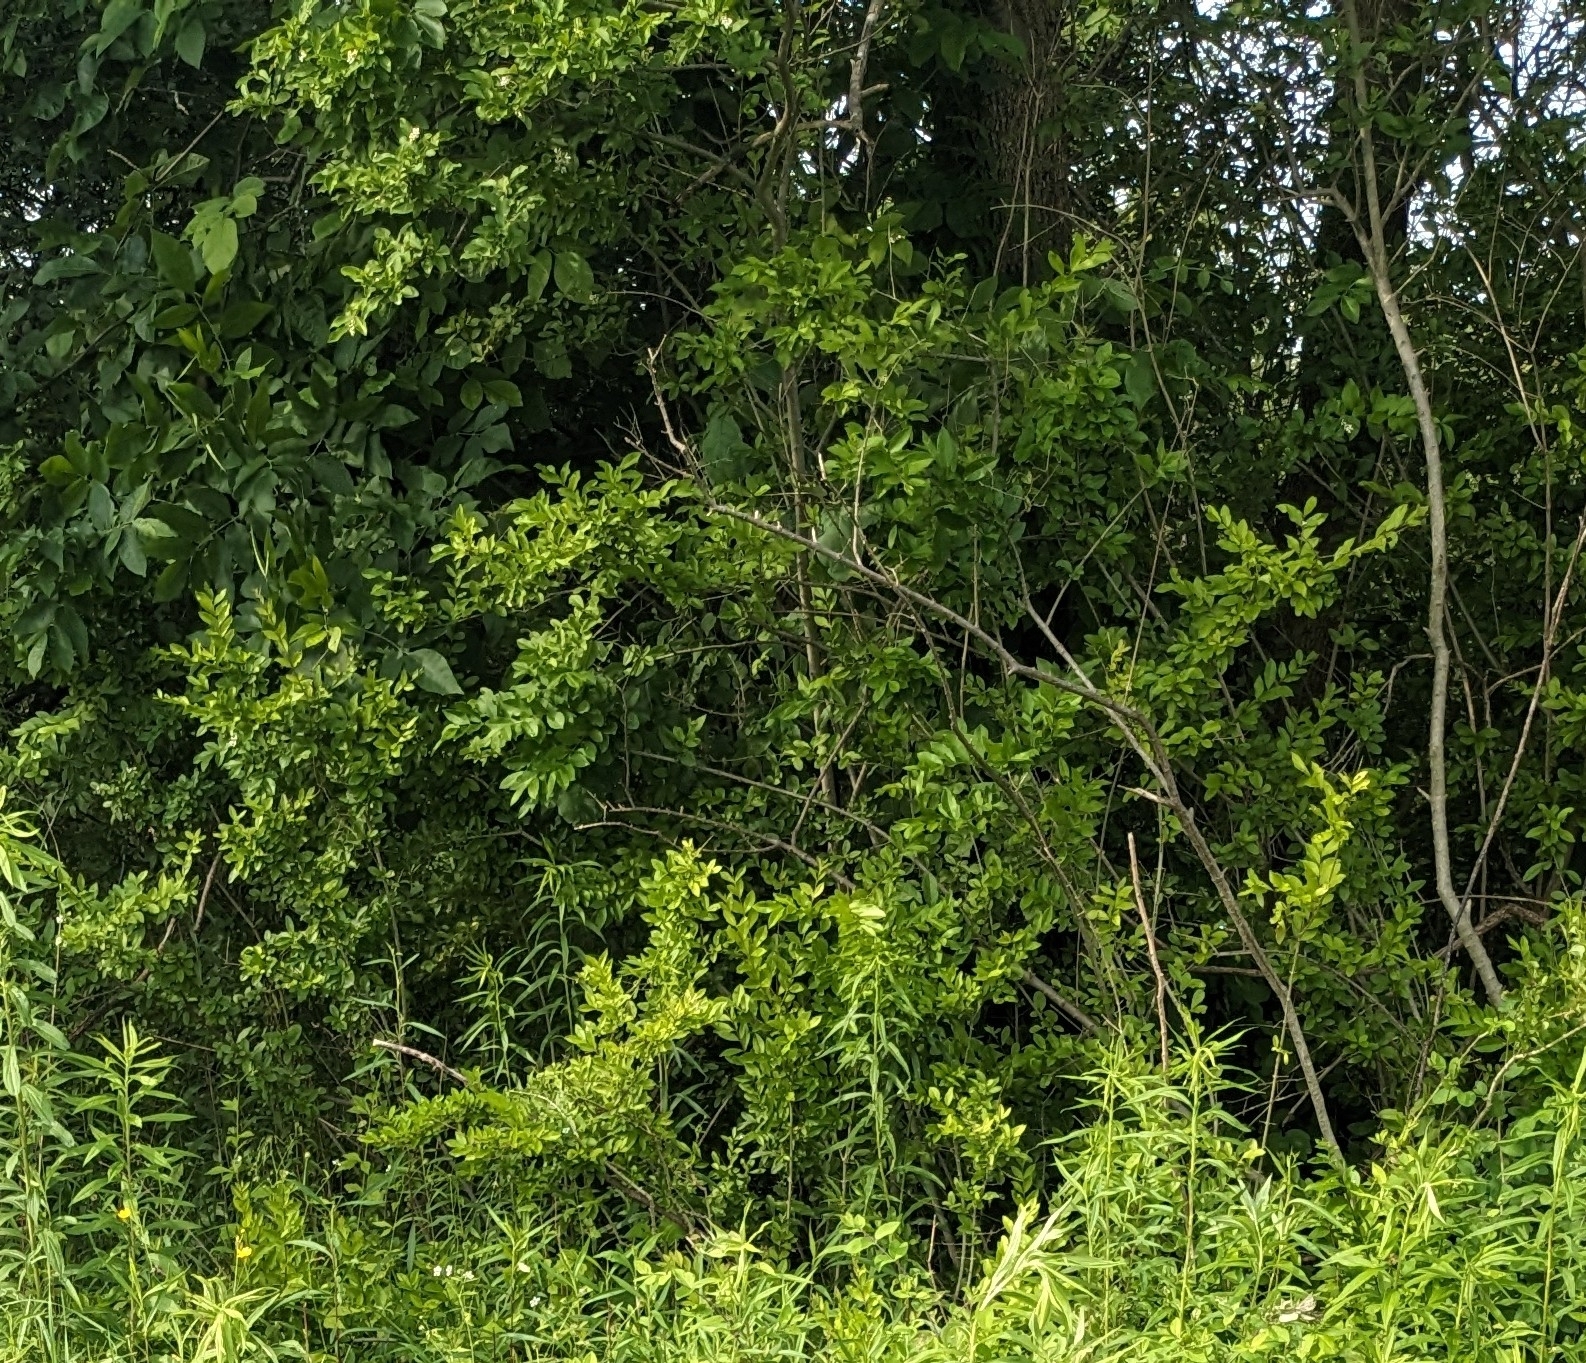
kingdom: Plantae
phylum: Tracheophyta
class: Magnoliopsida
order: Lamiales
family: Oleaceae
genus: Ligustrum
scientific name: Ligustrum obtusifolium
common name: Border privet
